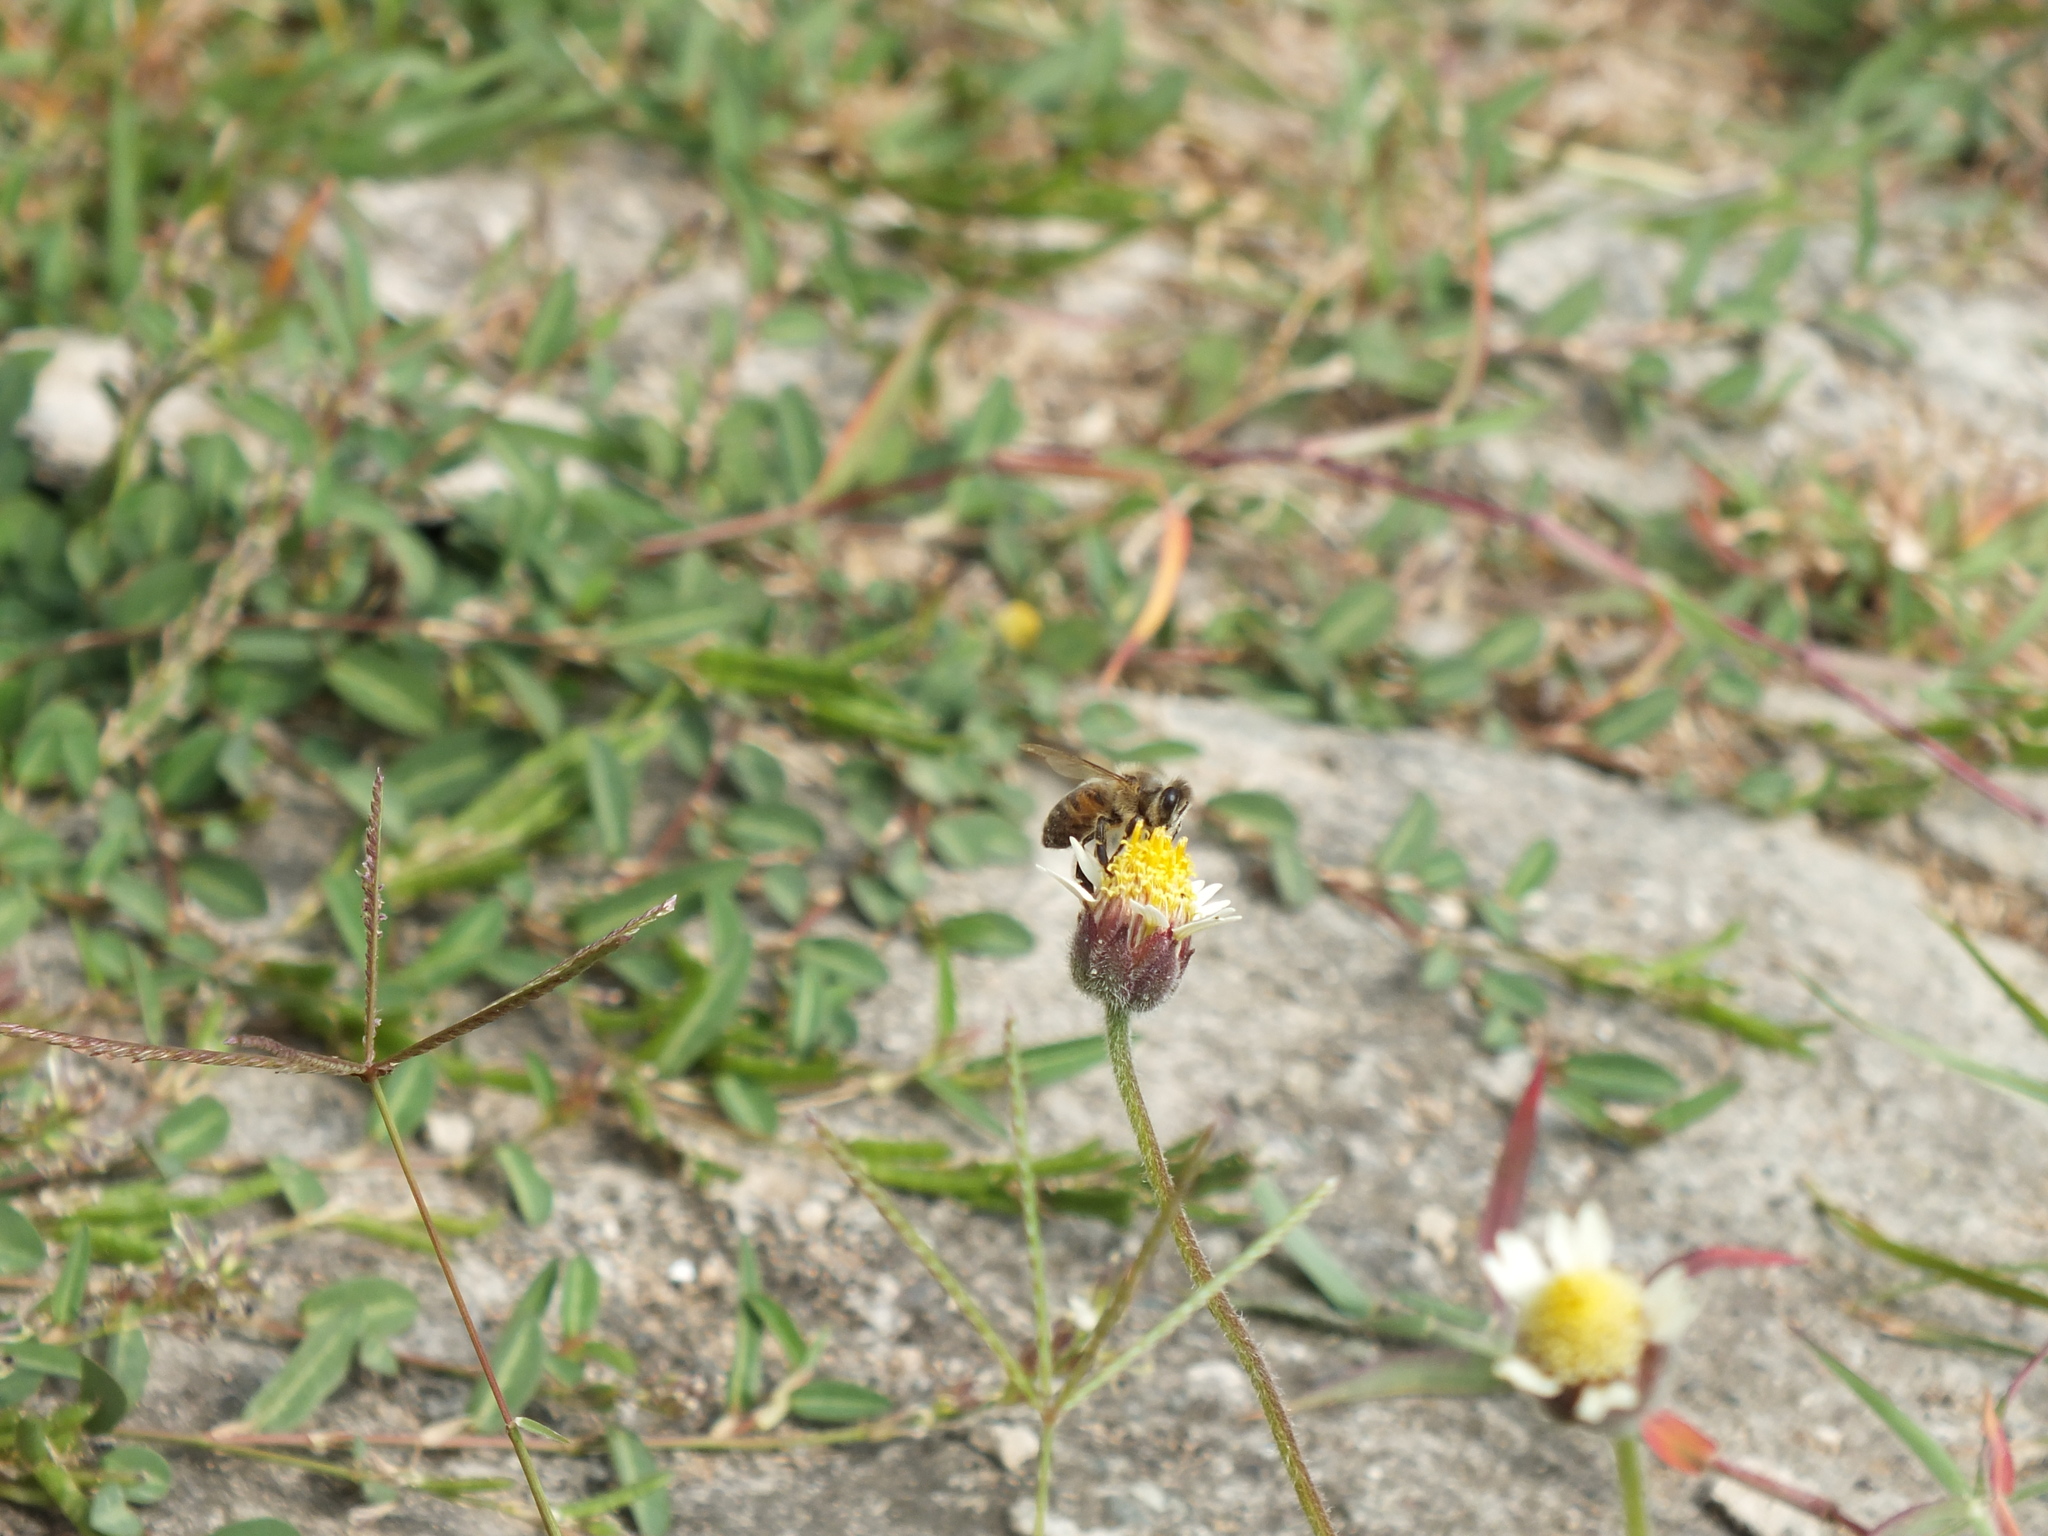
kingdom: Plantae
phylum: Tracheophyta
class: Magnoliopsida
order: Asterales
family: Asteraceae
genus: Tridax
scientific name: Tridax procumbens
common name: Coatbuttons
